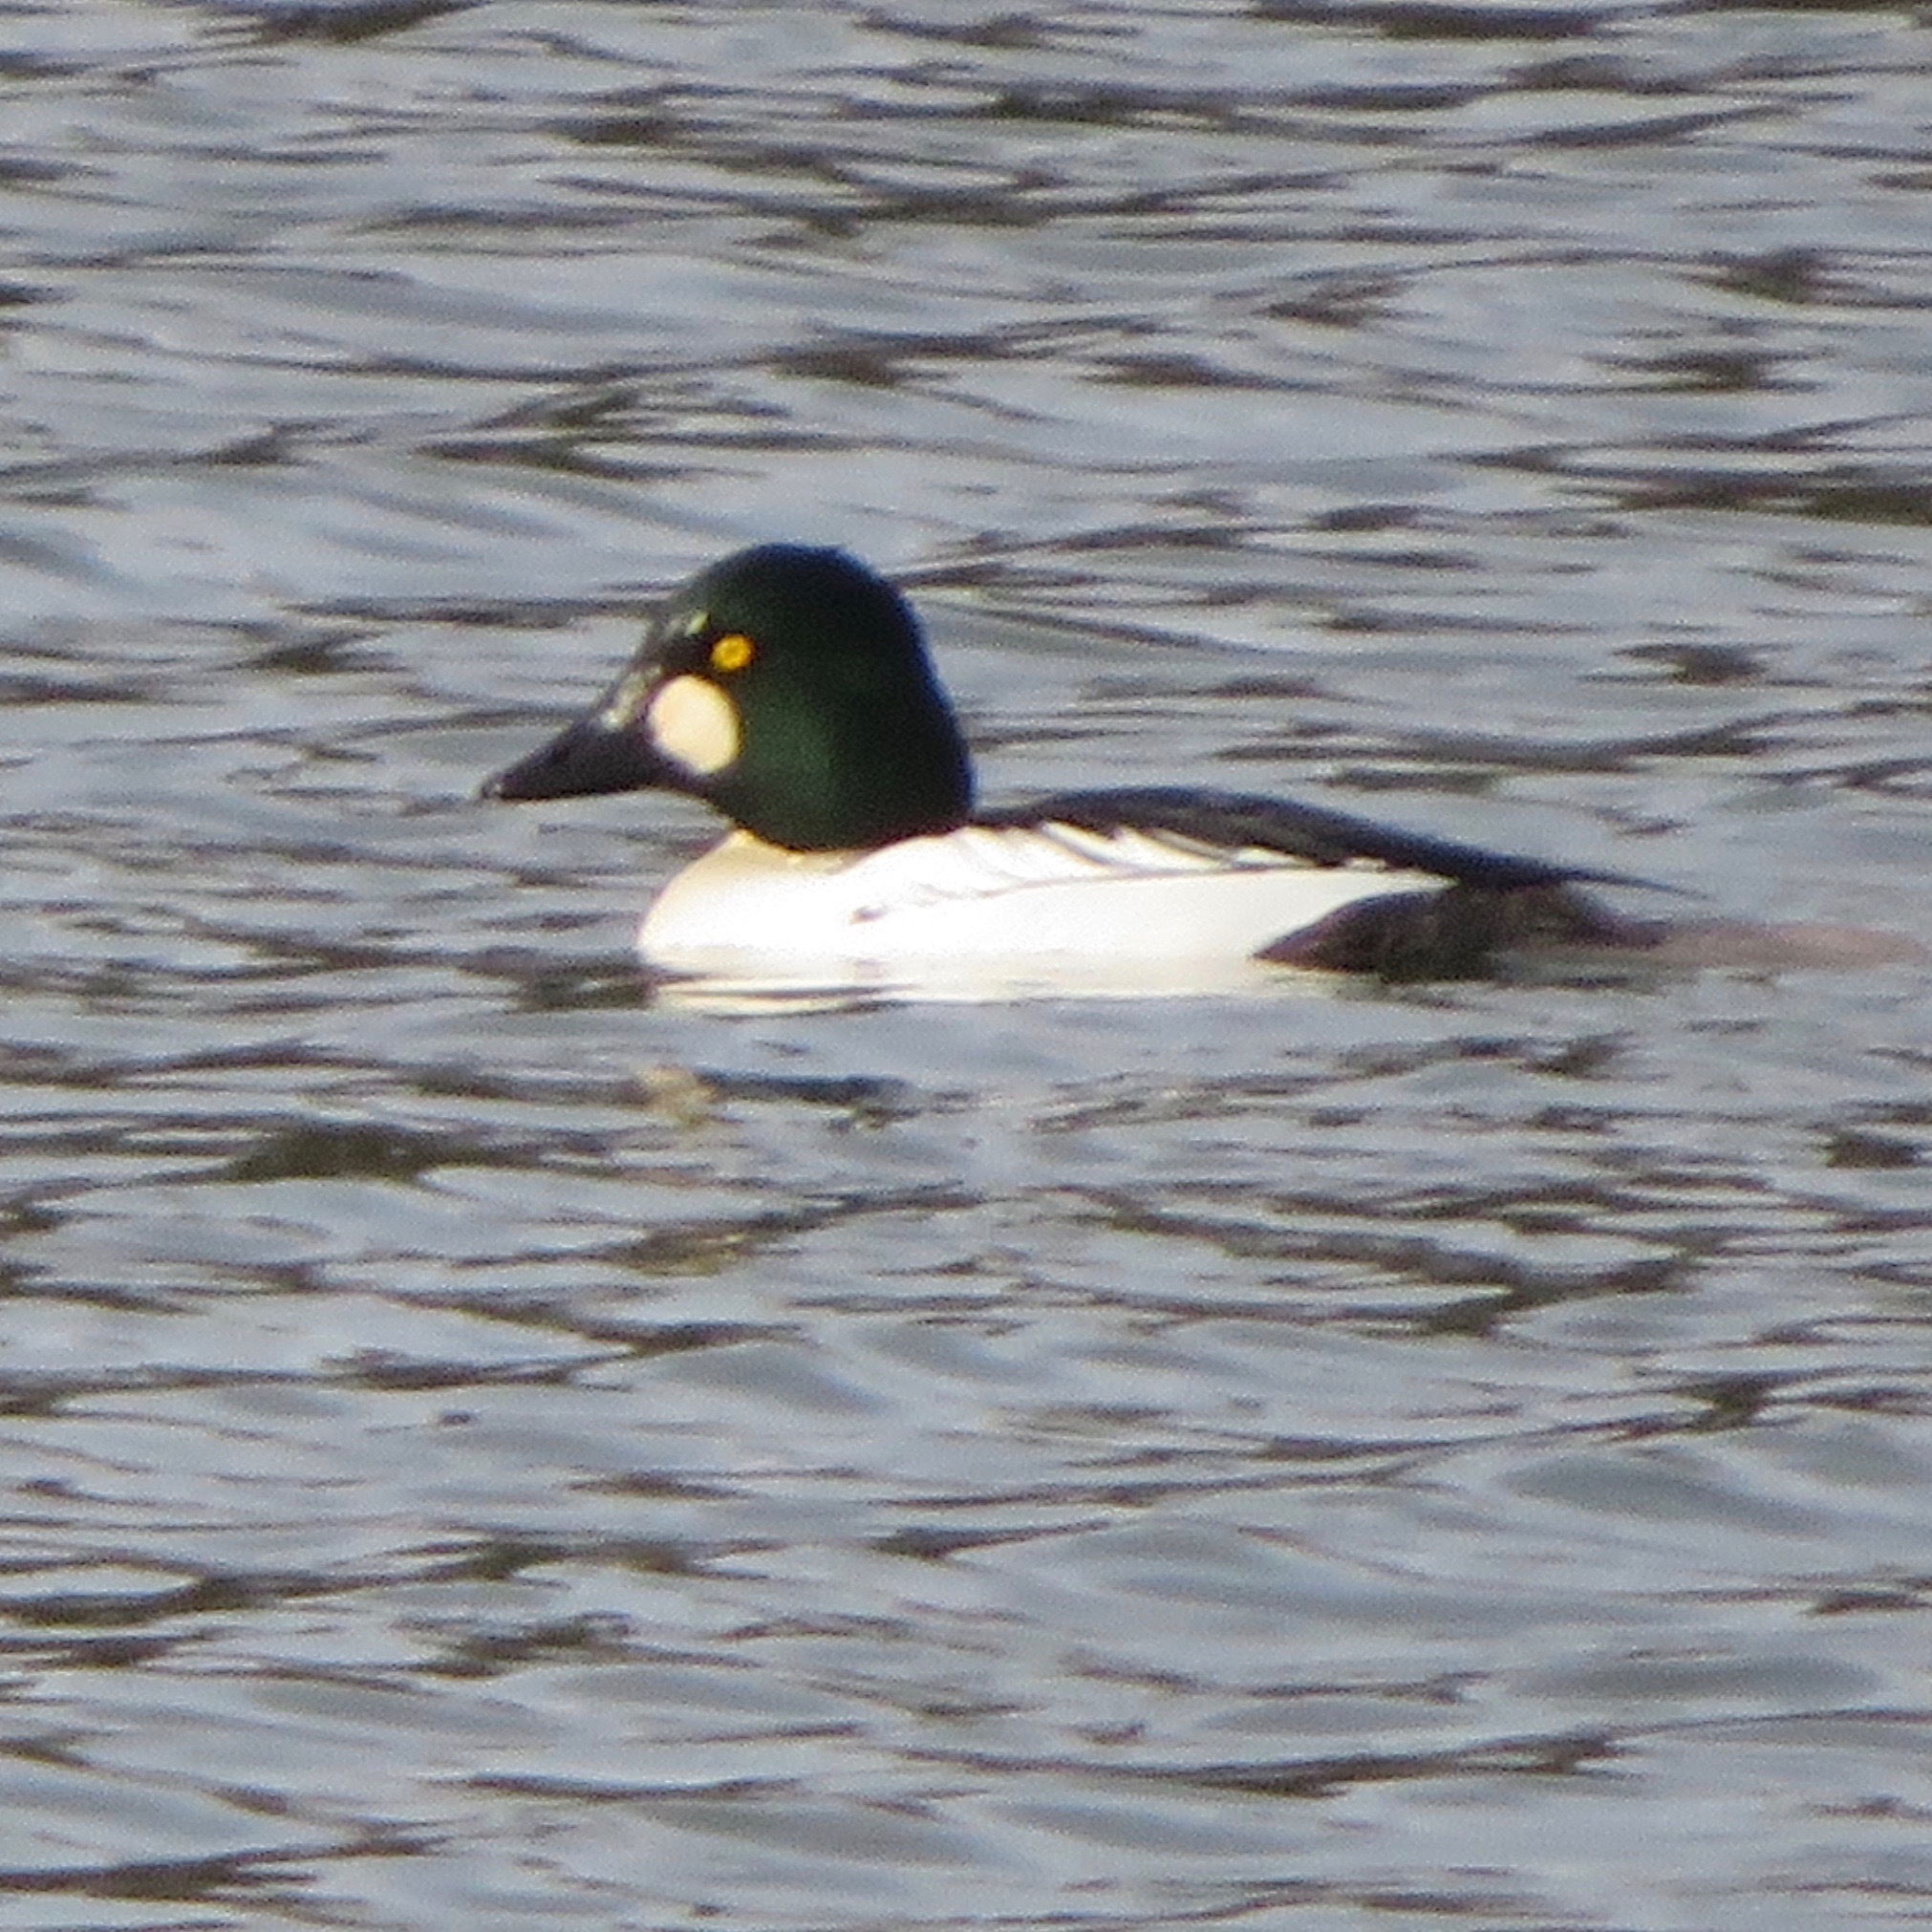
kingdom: Animalia
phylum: Chordata
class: Aves
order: Anseriformes
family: Anatidae
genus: Bucephala
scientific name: Bucephala clangula
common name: Common goldeneye
